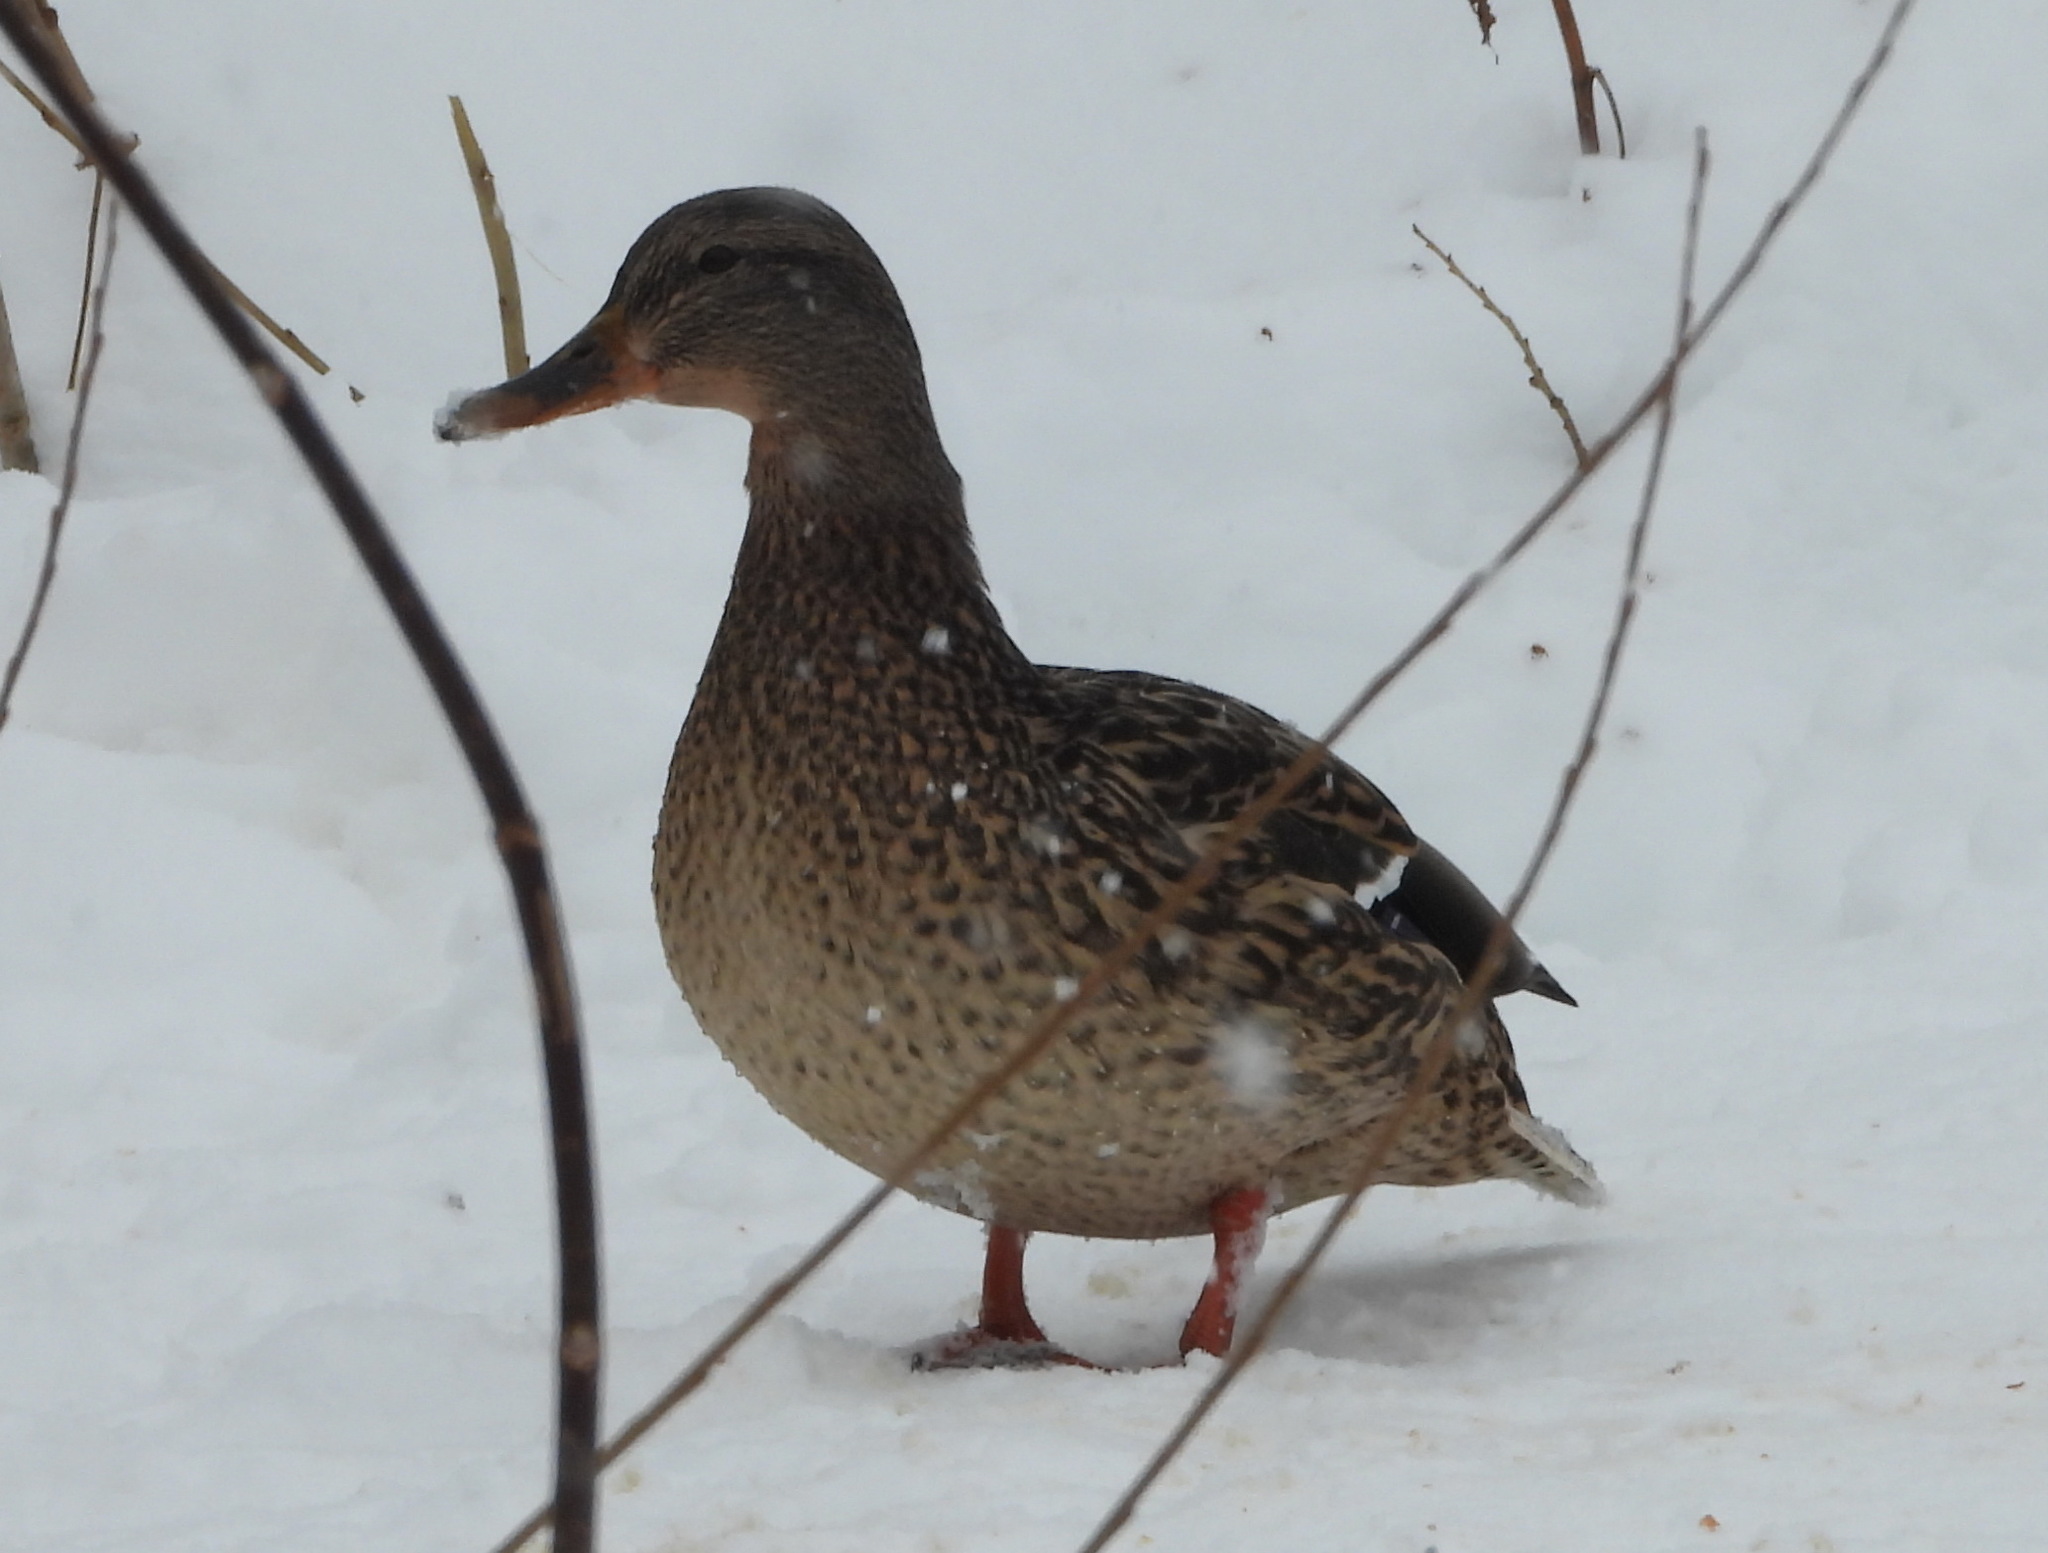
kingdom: Animalia
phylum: Chordata
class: Aves
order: Anseriformes
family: Anatidae
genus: Anas
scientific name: Anas platyrhynchos
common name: Mallard
